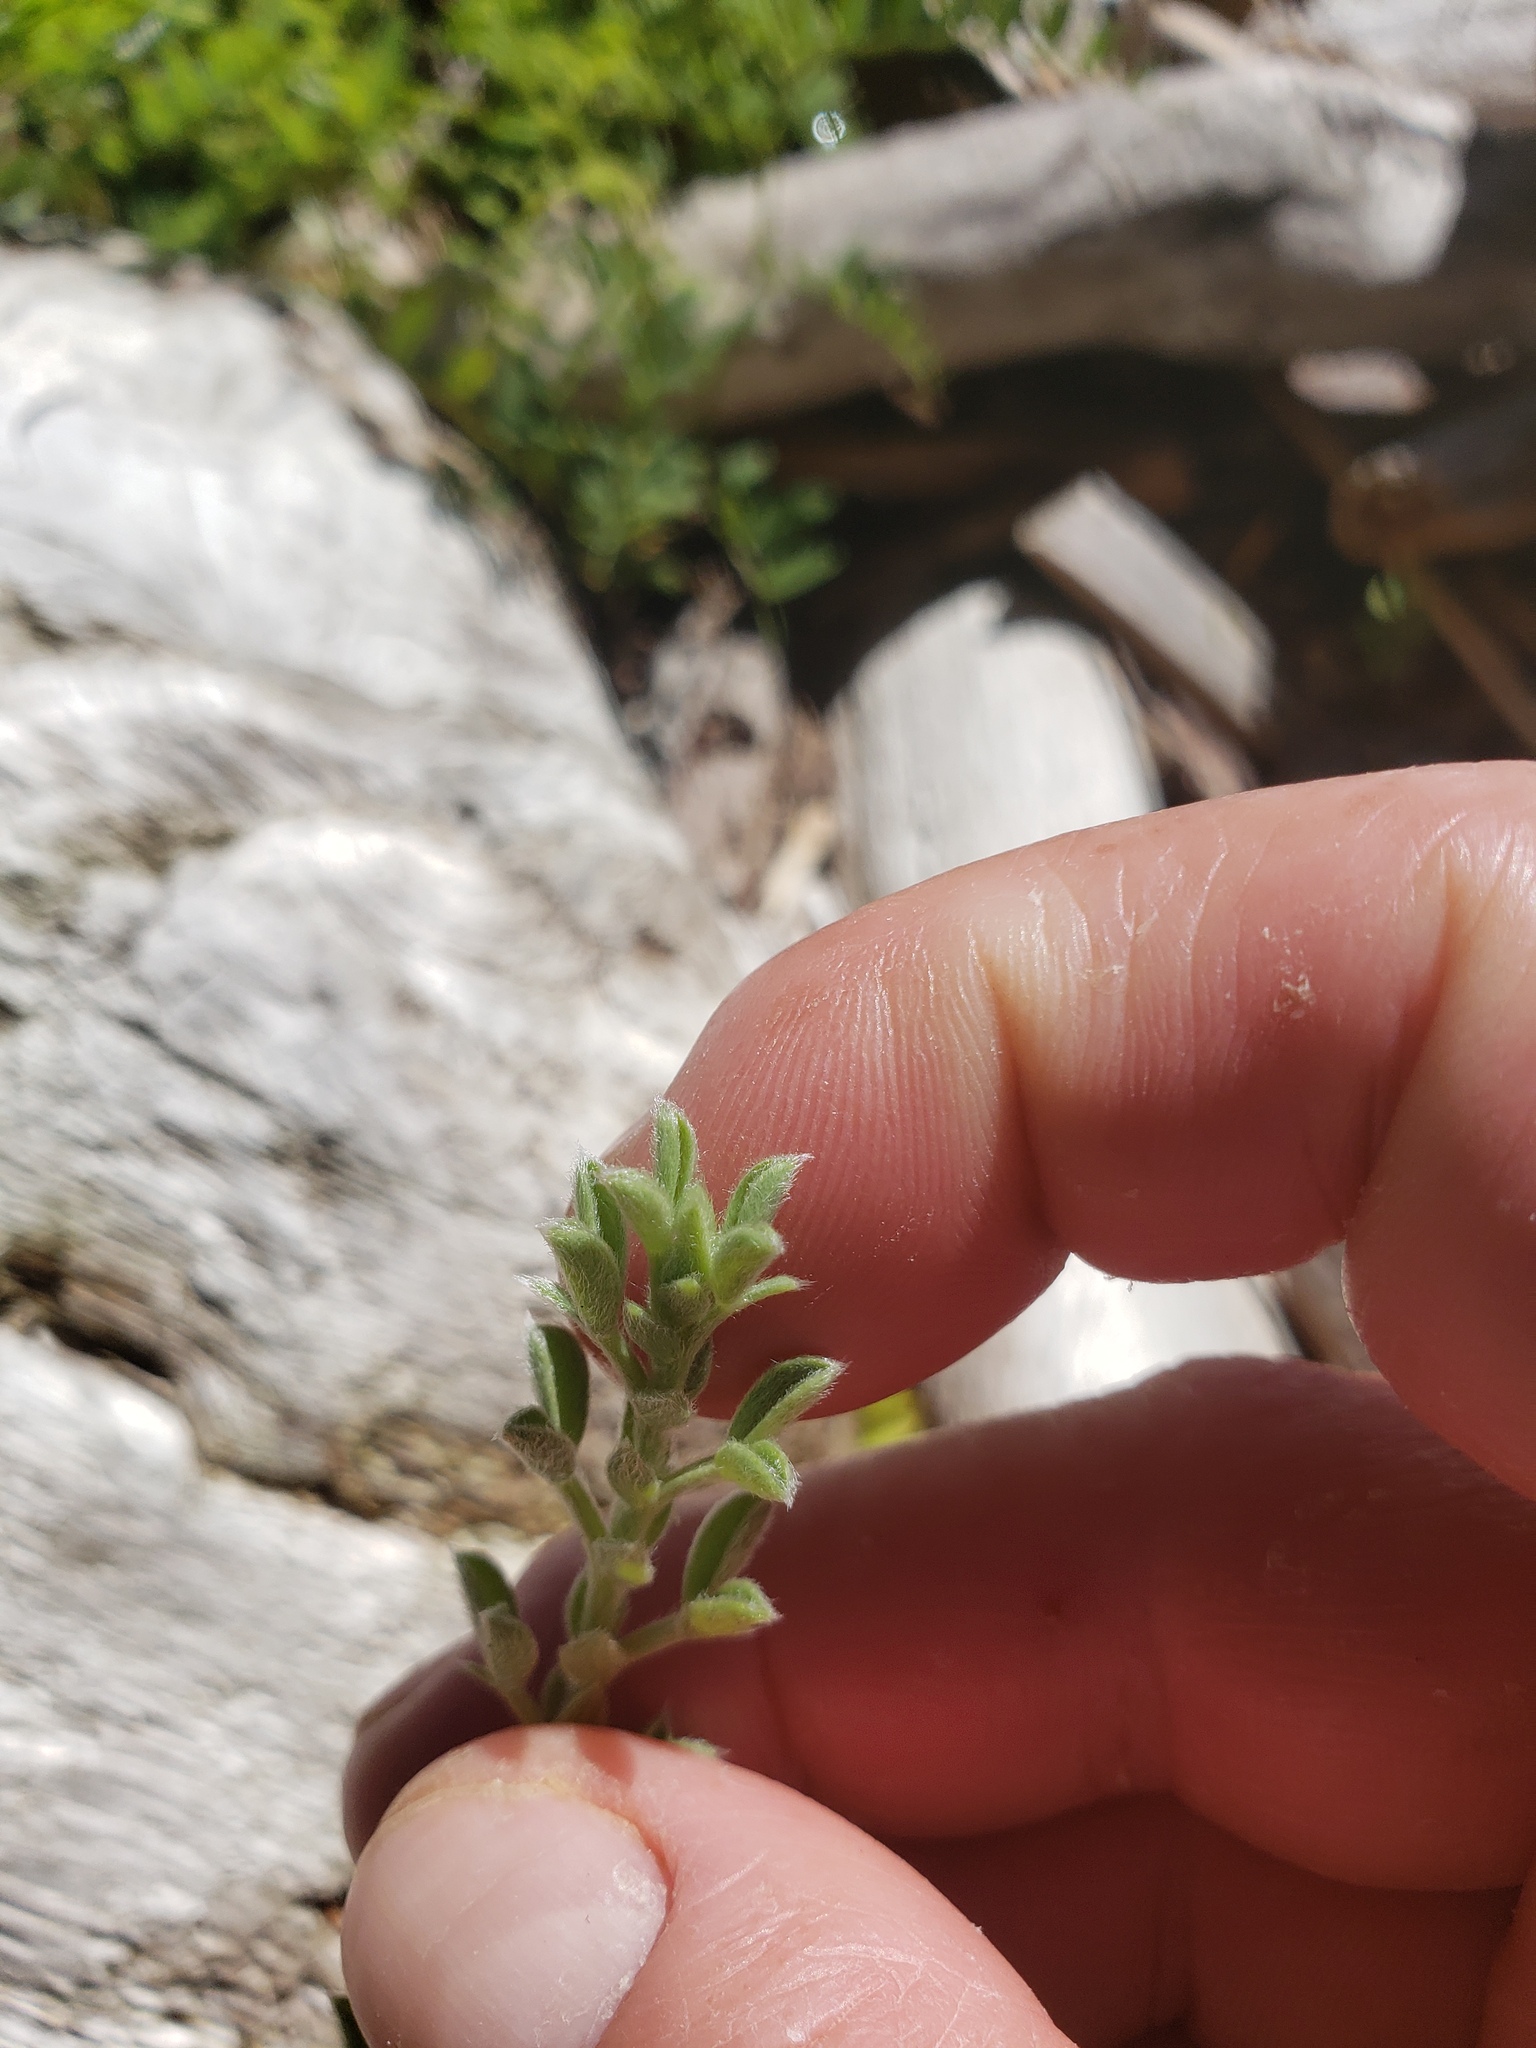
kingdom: Plantae
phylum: Tracheophyta
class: Magnoliopsida
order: Fabales
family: Fabaceae
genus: Lathyrus
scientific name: Lathyrus littoralis
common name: Dune sweet pea
